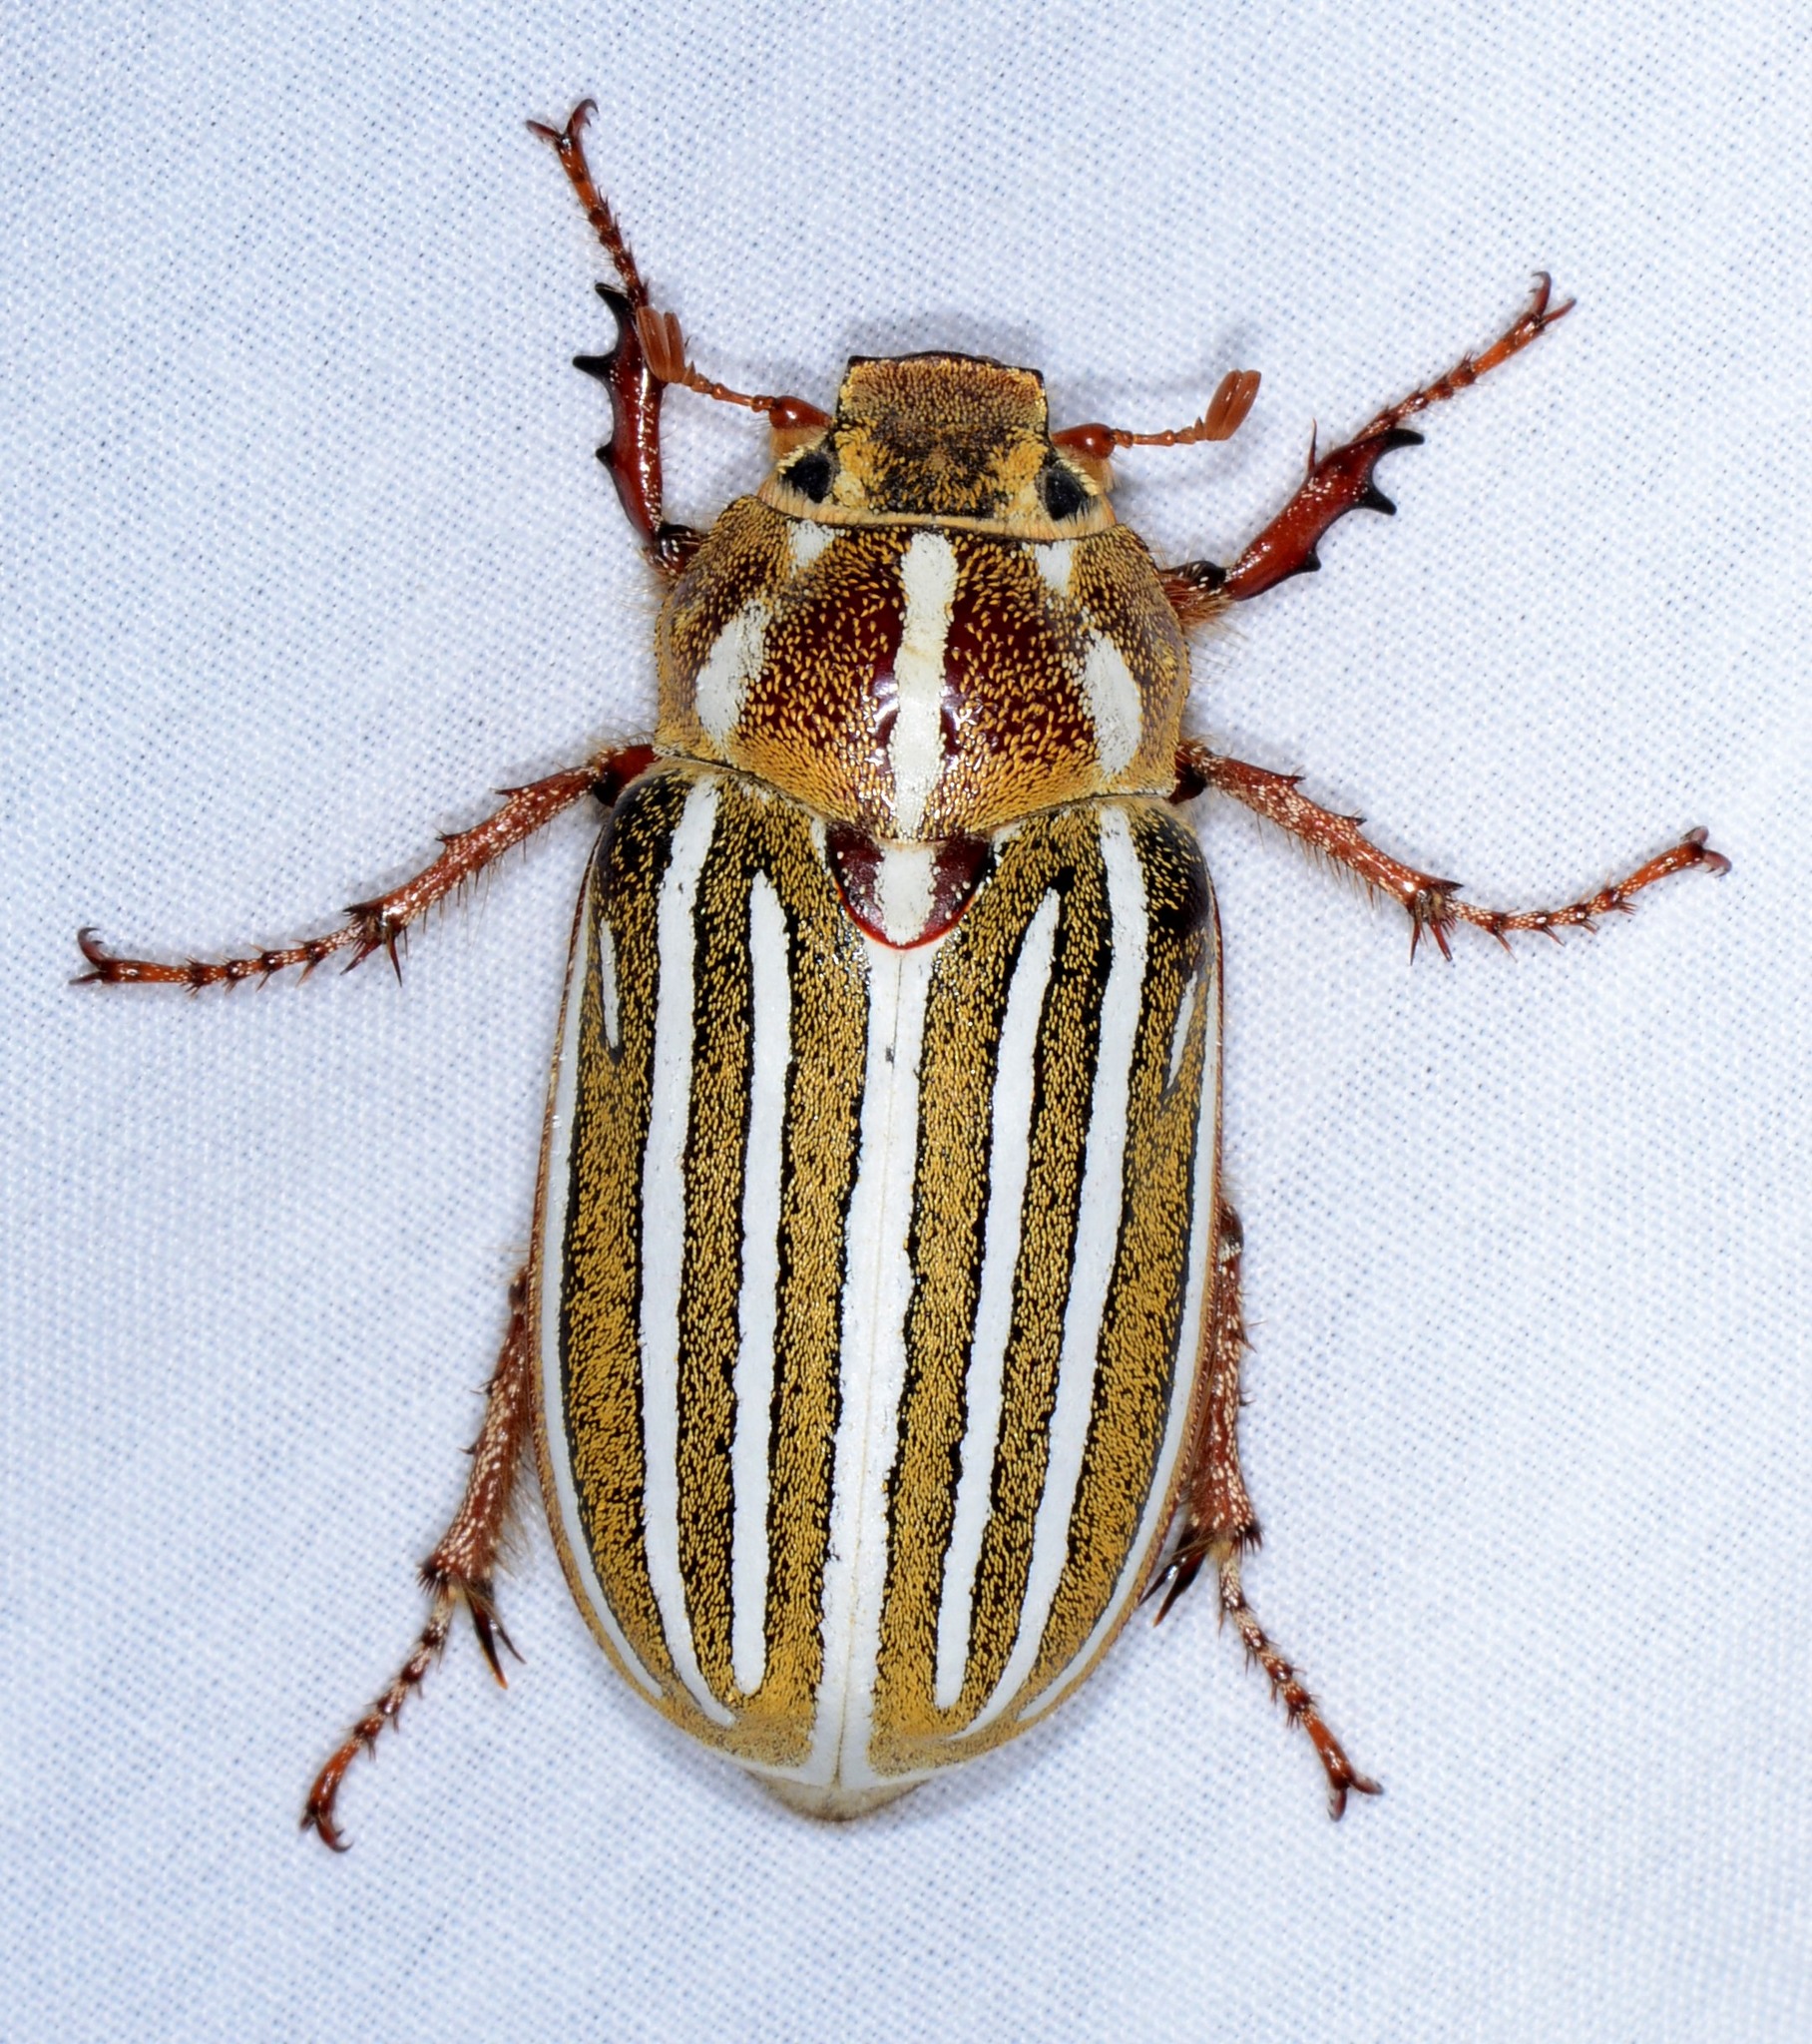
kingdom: Animalia
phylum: Arthropoda
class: Insecta
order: Coleoptera
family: Scarabaeidae
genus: Polyphylla
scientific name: Polyphylla decemlineata
